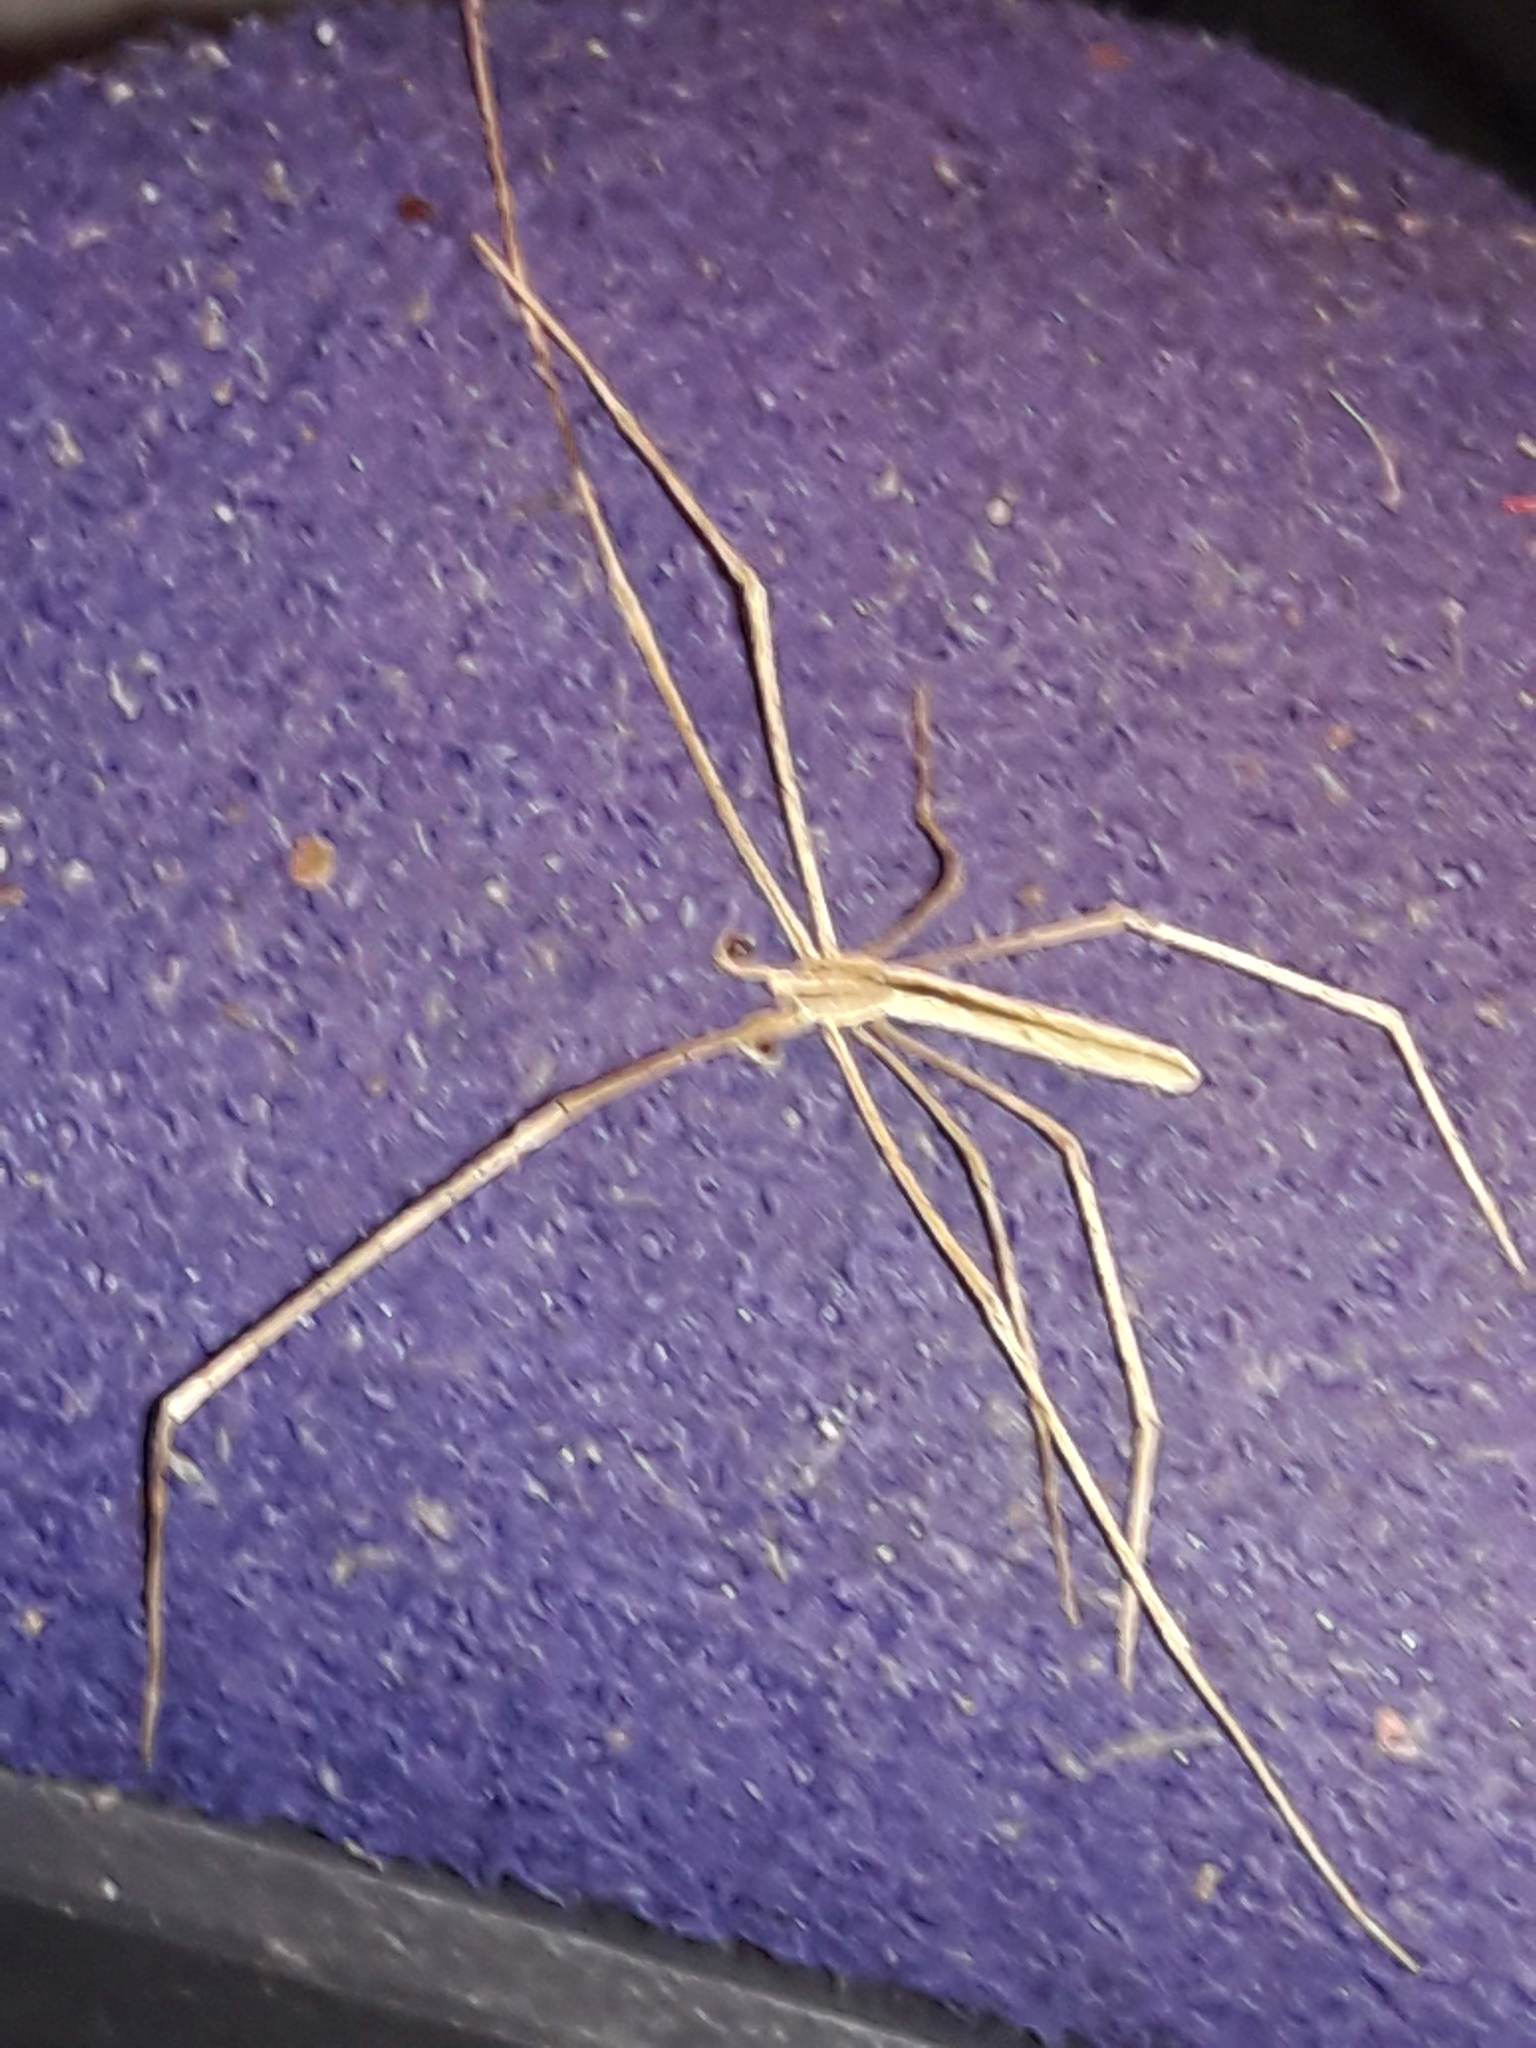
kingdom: Animalia
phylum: Arthropoda
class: Arachnida
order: Araneae
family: Deinopidae
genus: Deinopis
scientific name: Deinopis longipes
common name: Ogre faced spiders
